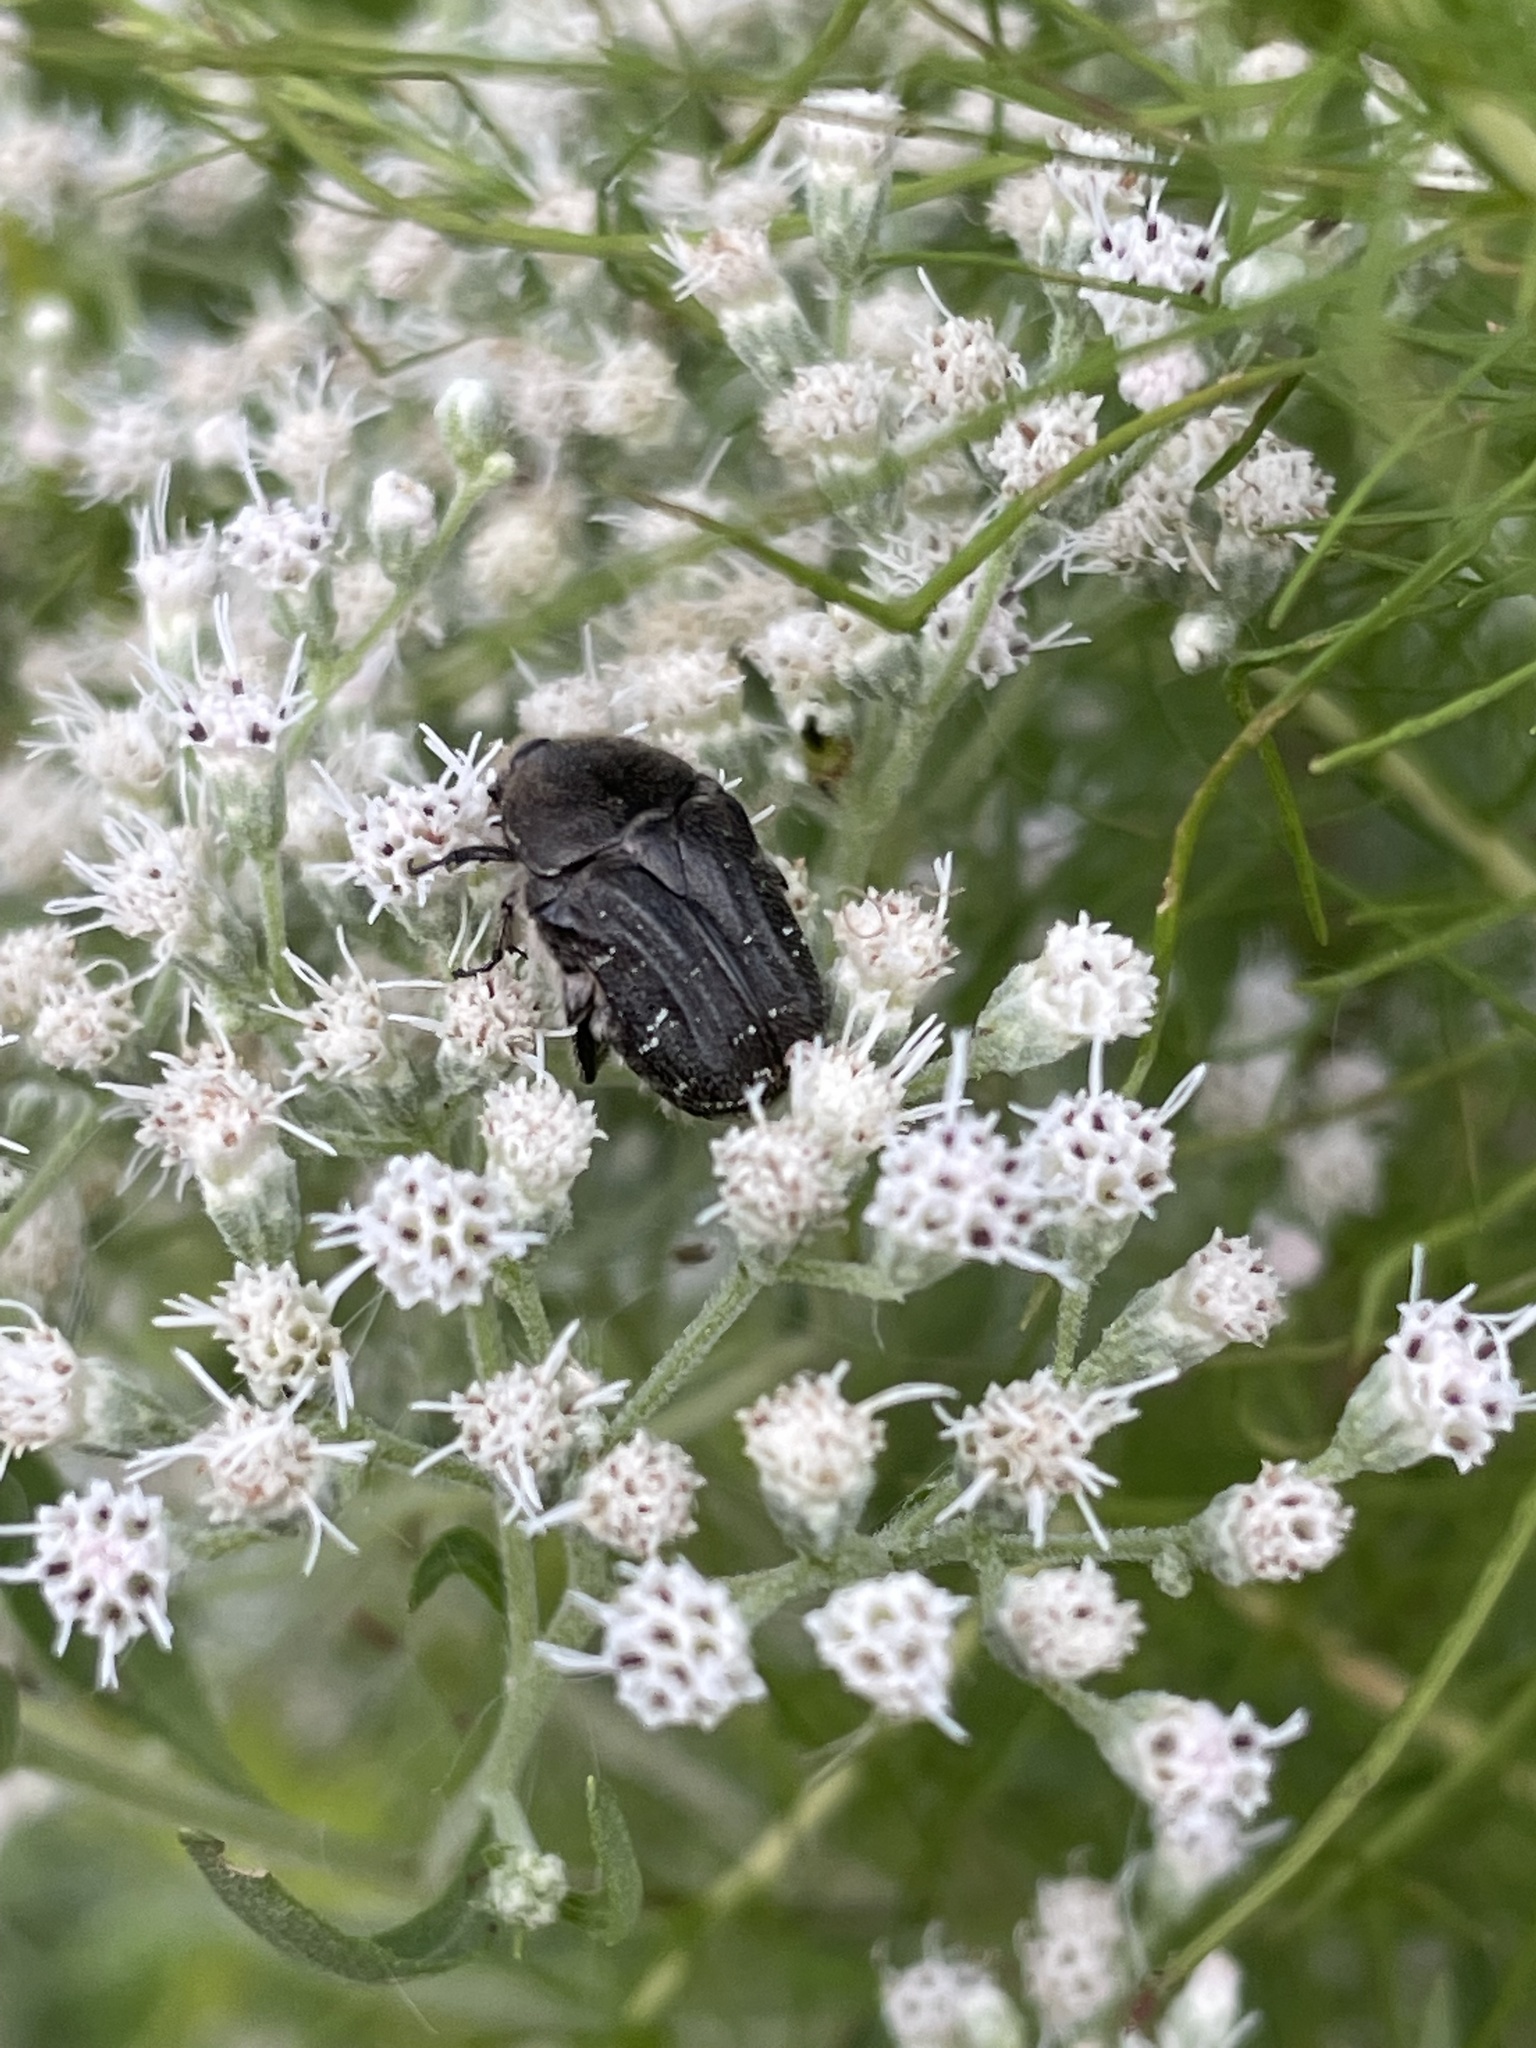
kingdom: Animalia
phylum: Arthropoda
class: Insecta
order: Coleoptera
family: Scarabaeidae
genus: Euphoria
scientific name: Euphoria sepulcralis
